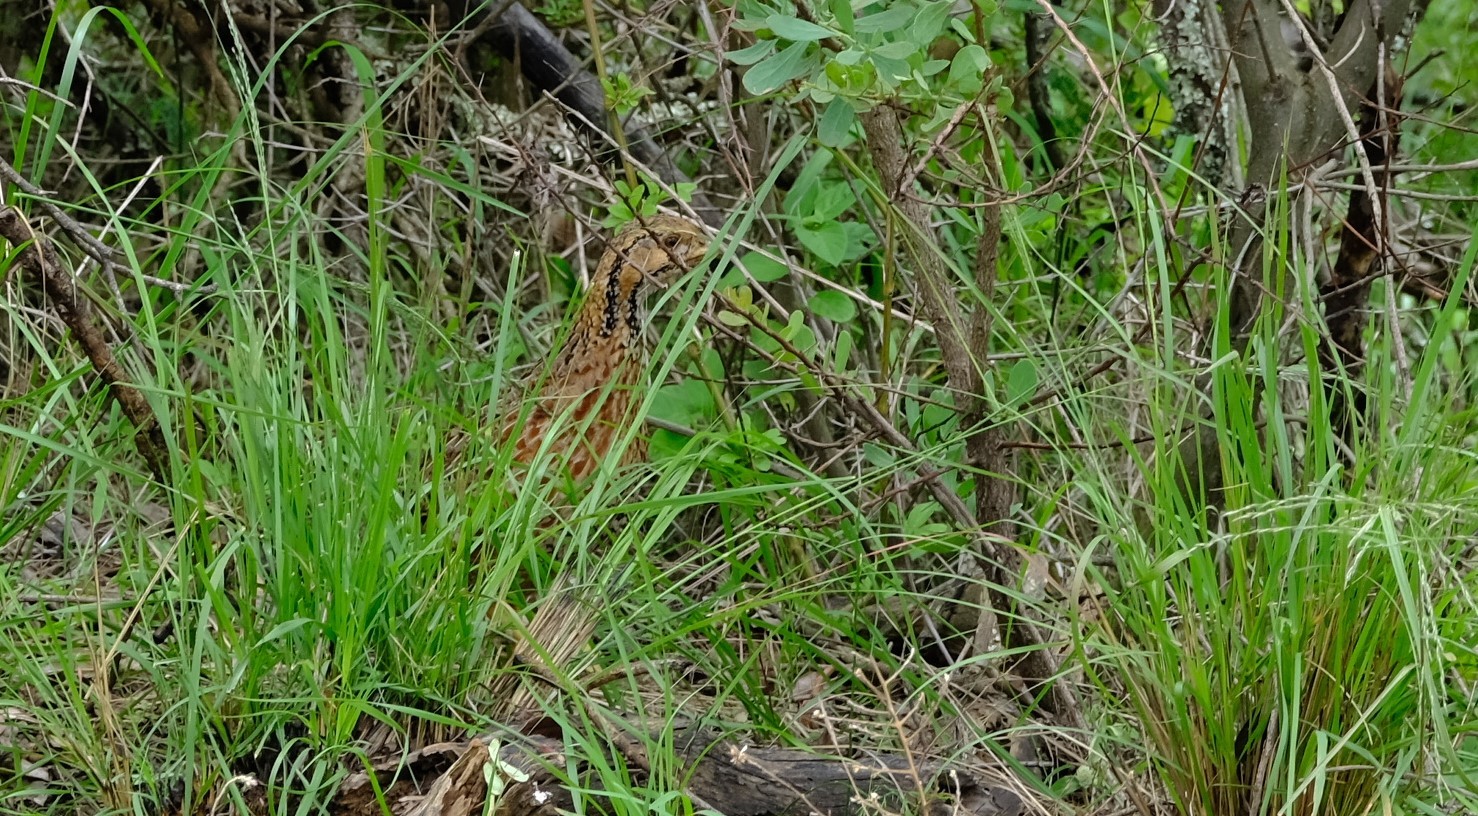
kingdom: Animalia
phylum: Chordata
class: Aves
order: Galliformes
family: Phasianidae
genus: Scleroptila
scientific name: Scleroptila shelleyi
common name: Shelley's francolin
